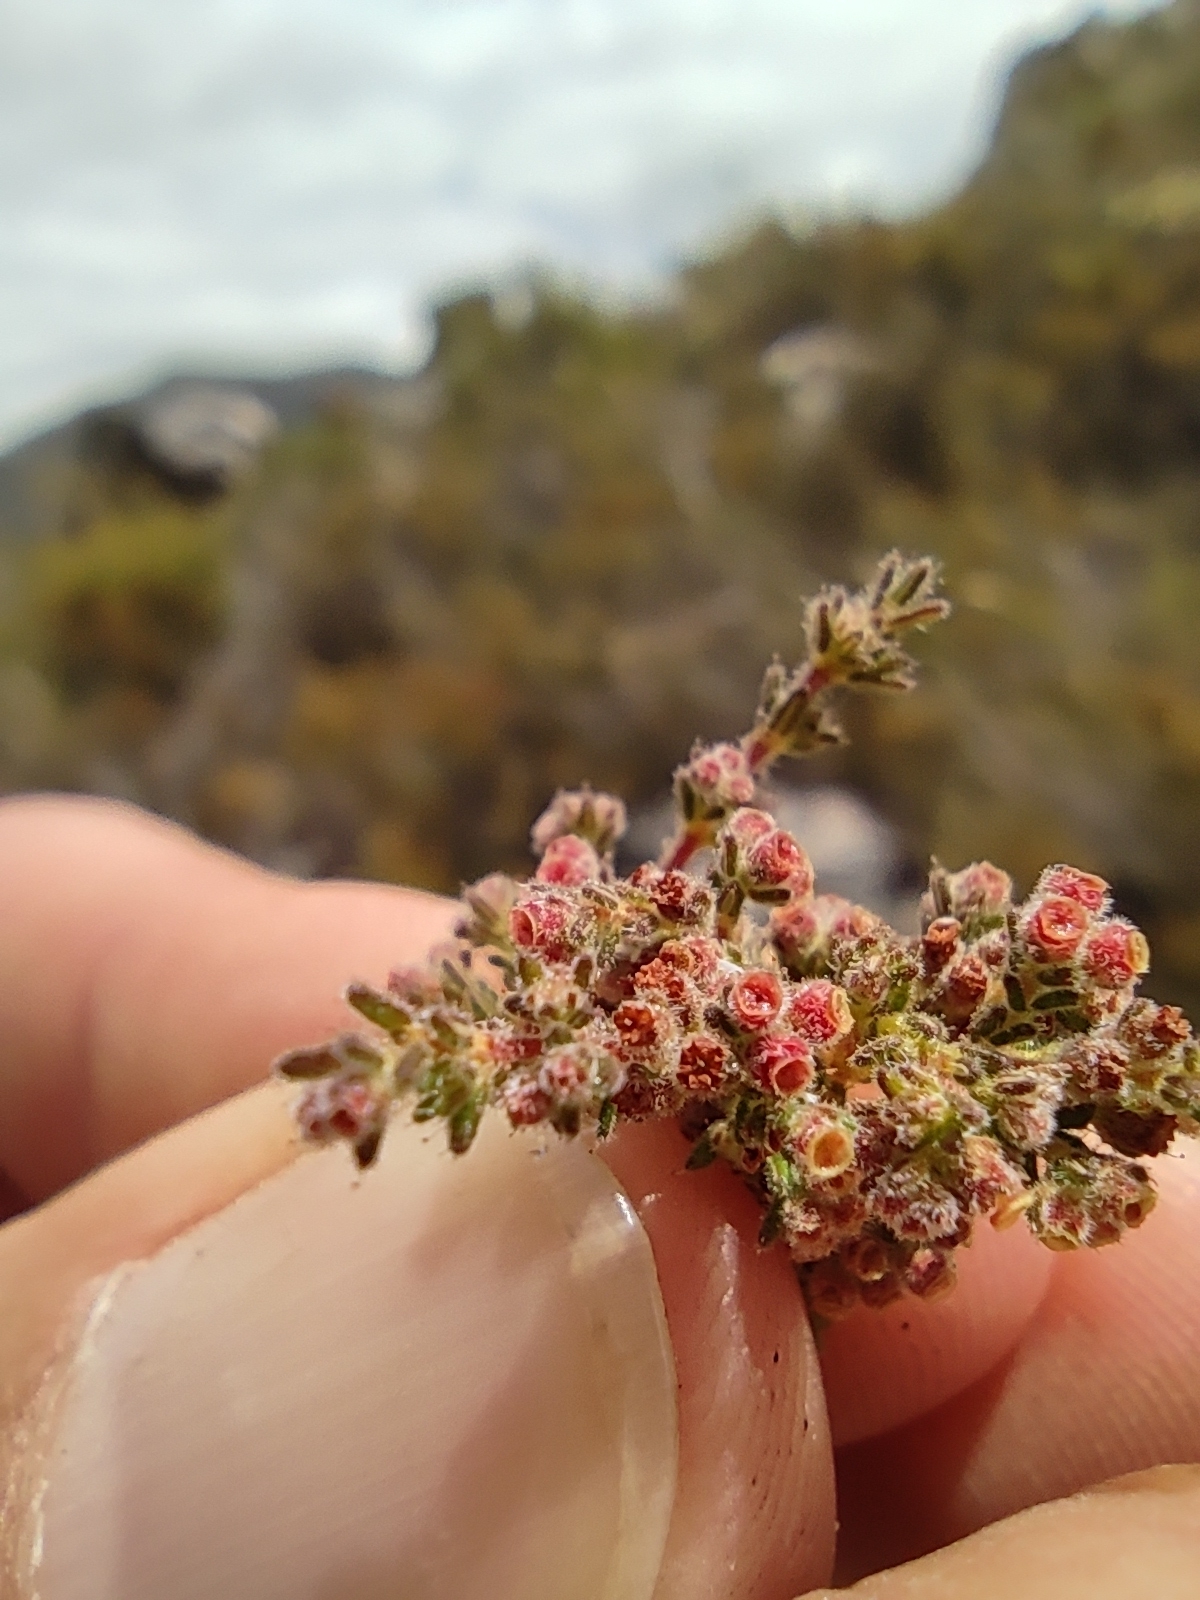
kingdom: Plantae
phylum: Tracheophyta
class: Magnoliopsida
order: Ericales
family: Ericaceae
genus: Erica
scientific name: Erica altiphila
